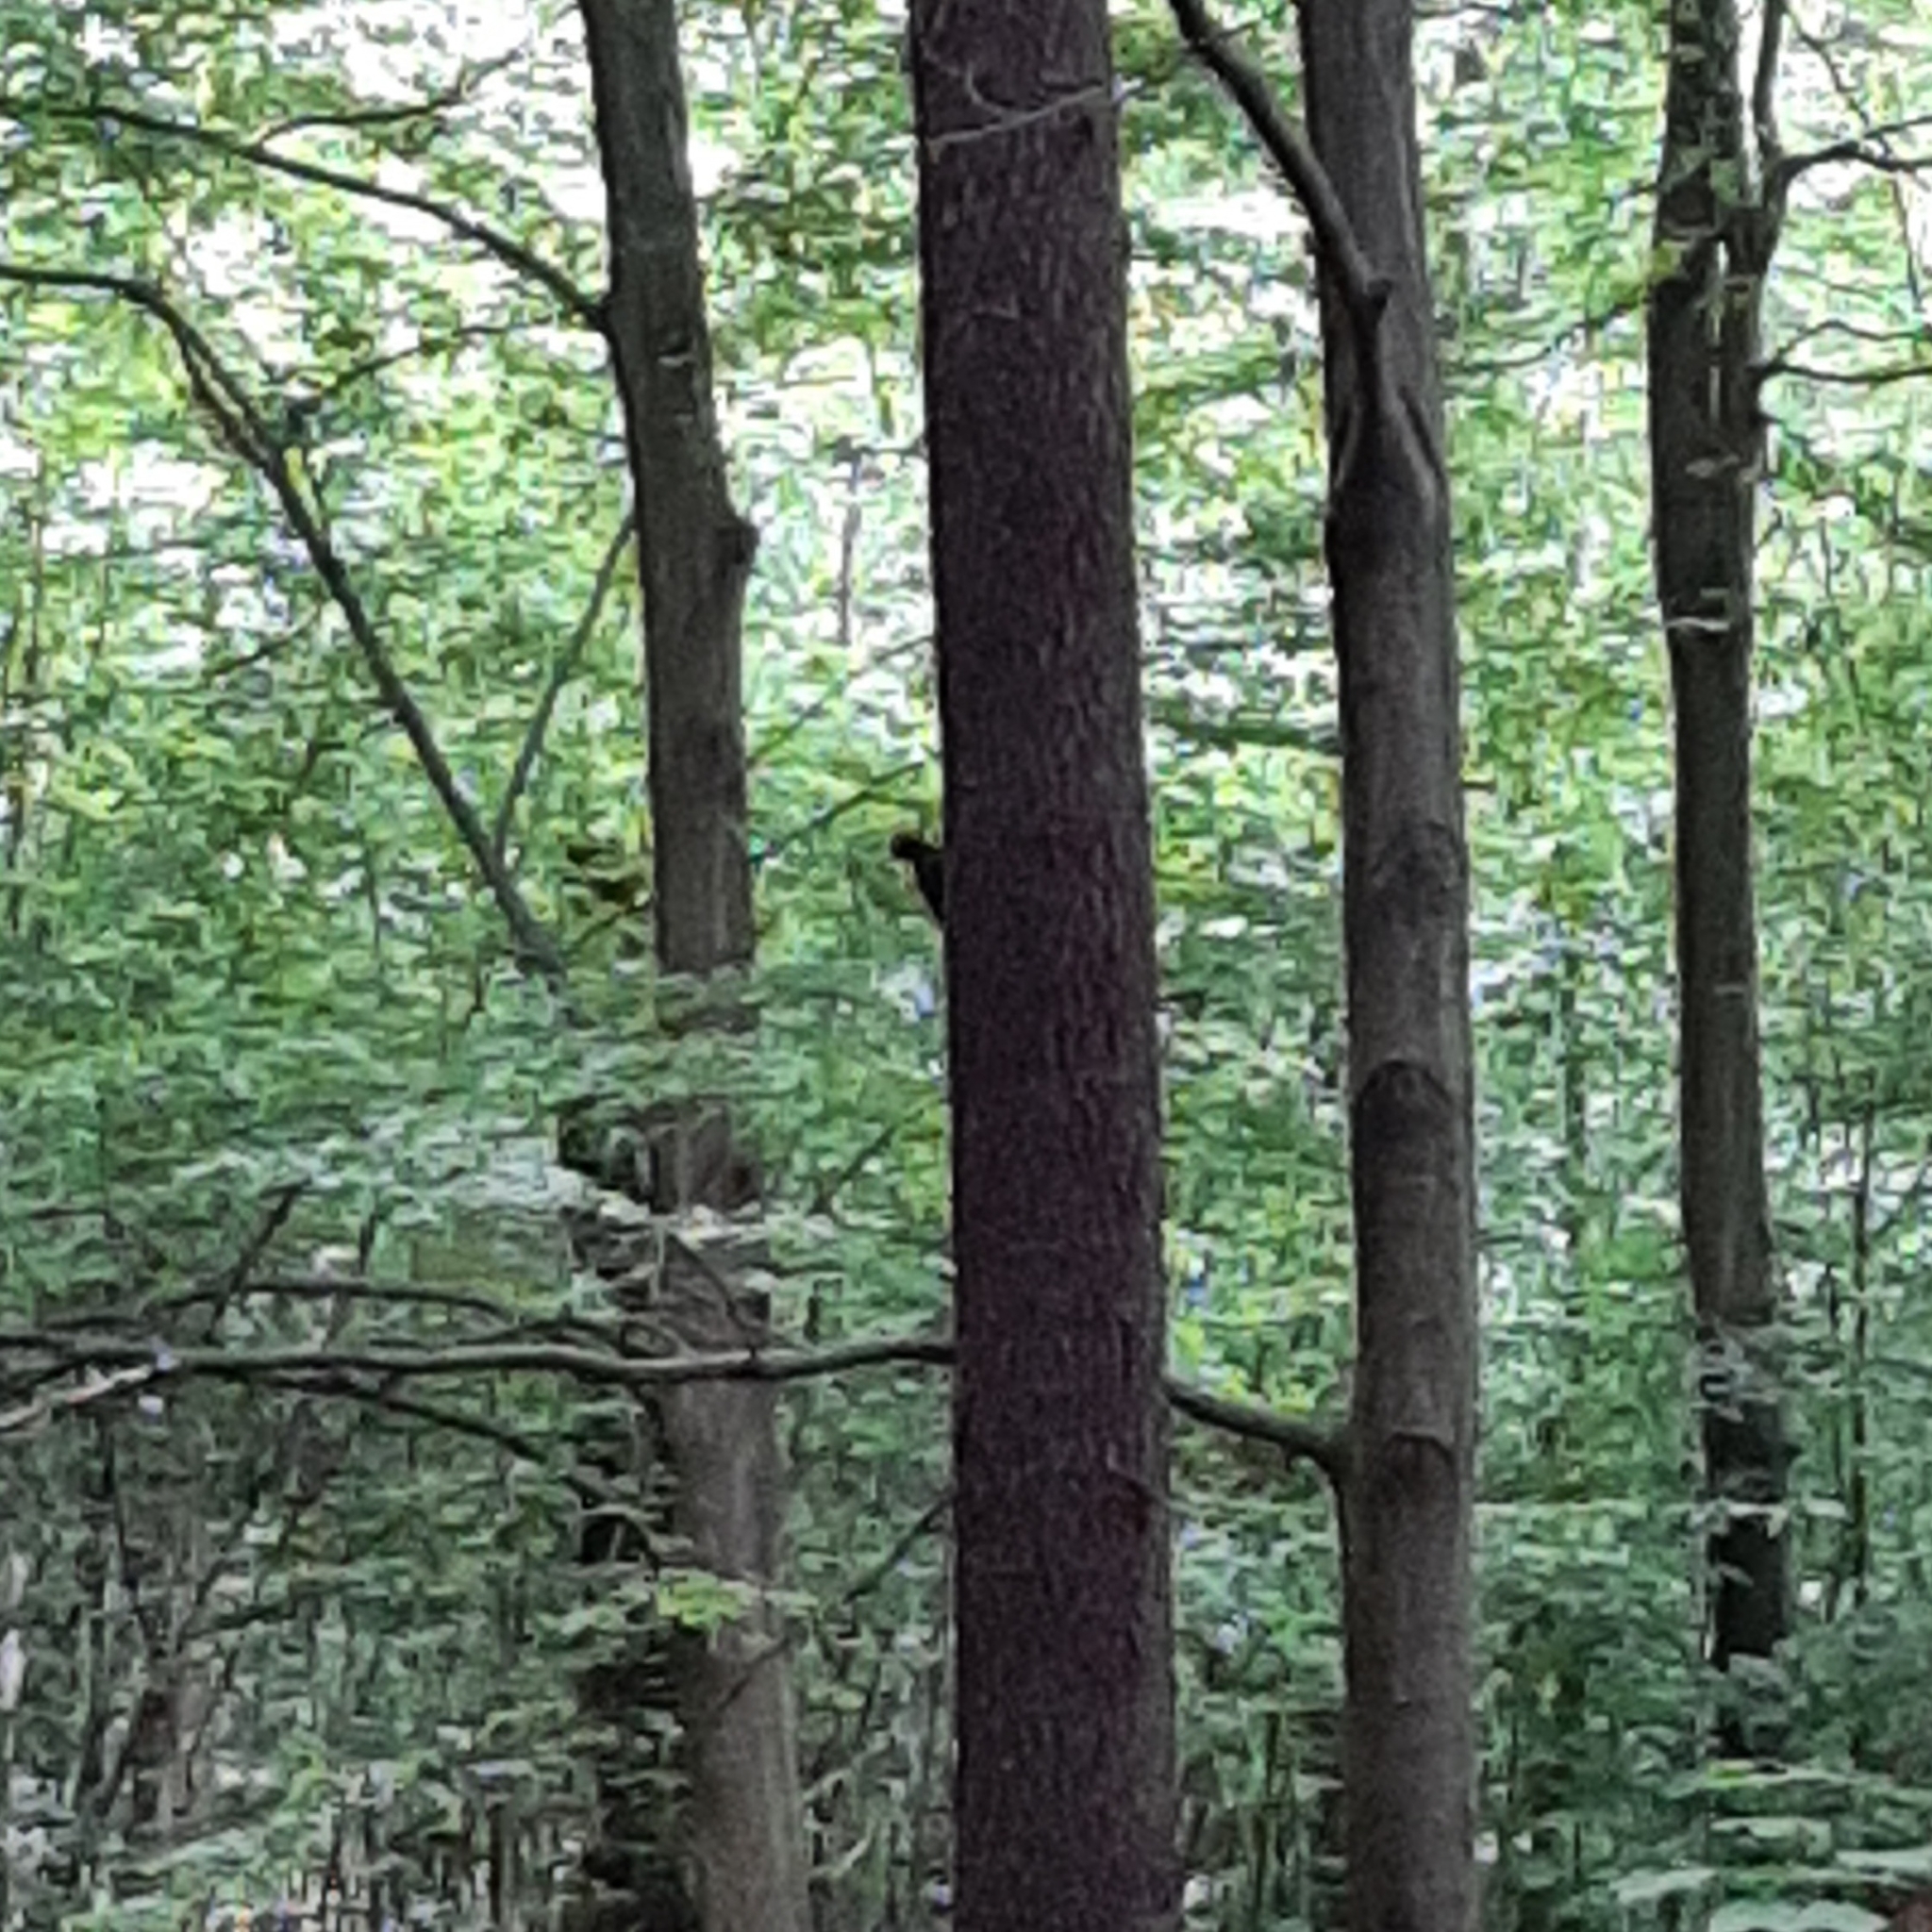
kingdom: Animalia
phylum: Chordata
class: Aves
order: Piciformes
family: Picidae
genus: Dryocopus
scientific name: Dryocopus martius
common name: Black woodpecker
